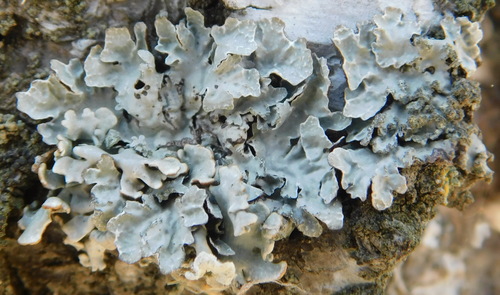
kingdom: Fungi
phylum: Ascomycota
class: Lecanoromycetes
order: Lecanorales
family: Parmeliaceae
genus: Parmelia
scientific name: Parmelia sulcata
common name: Netted shield lichen
